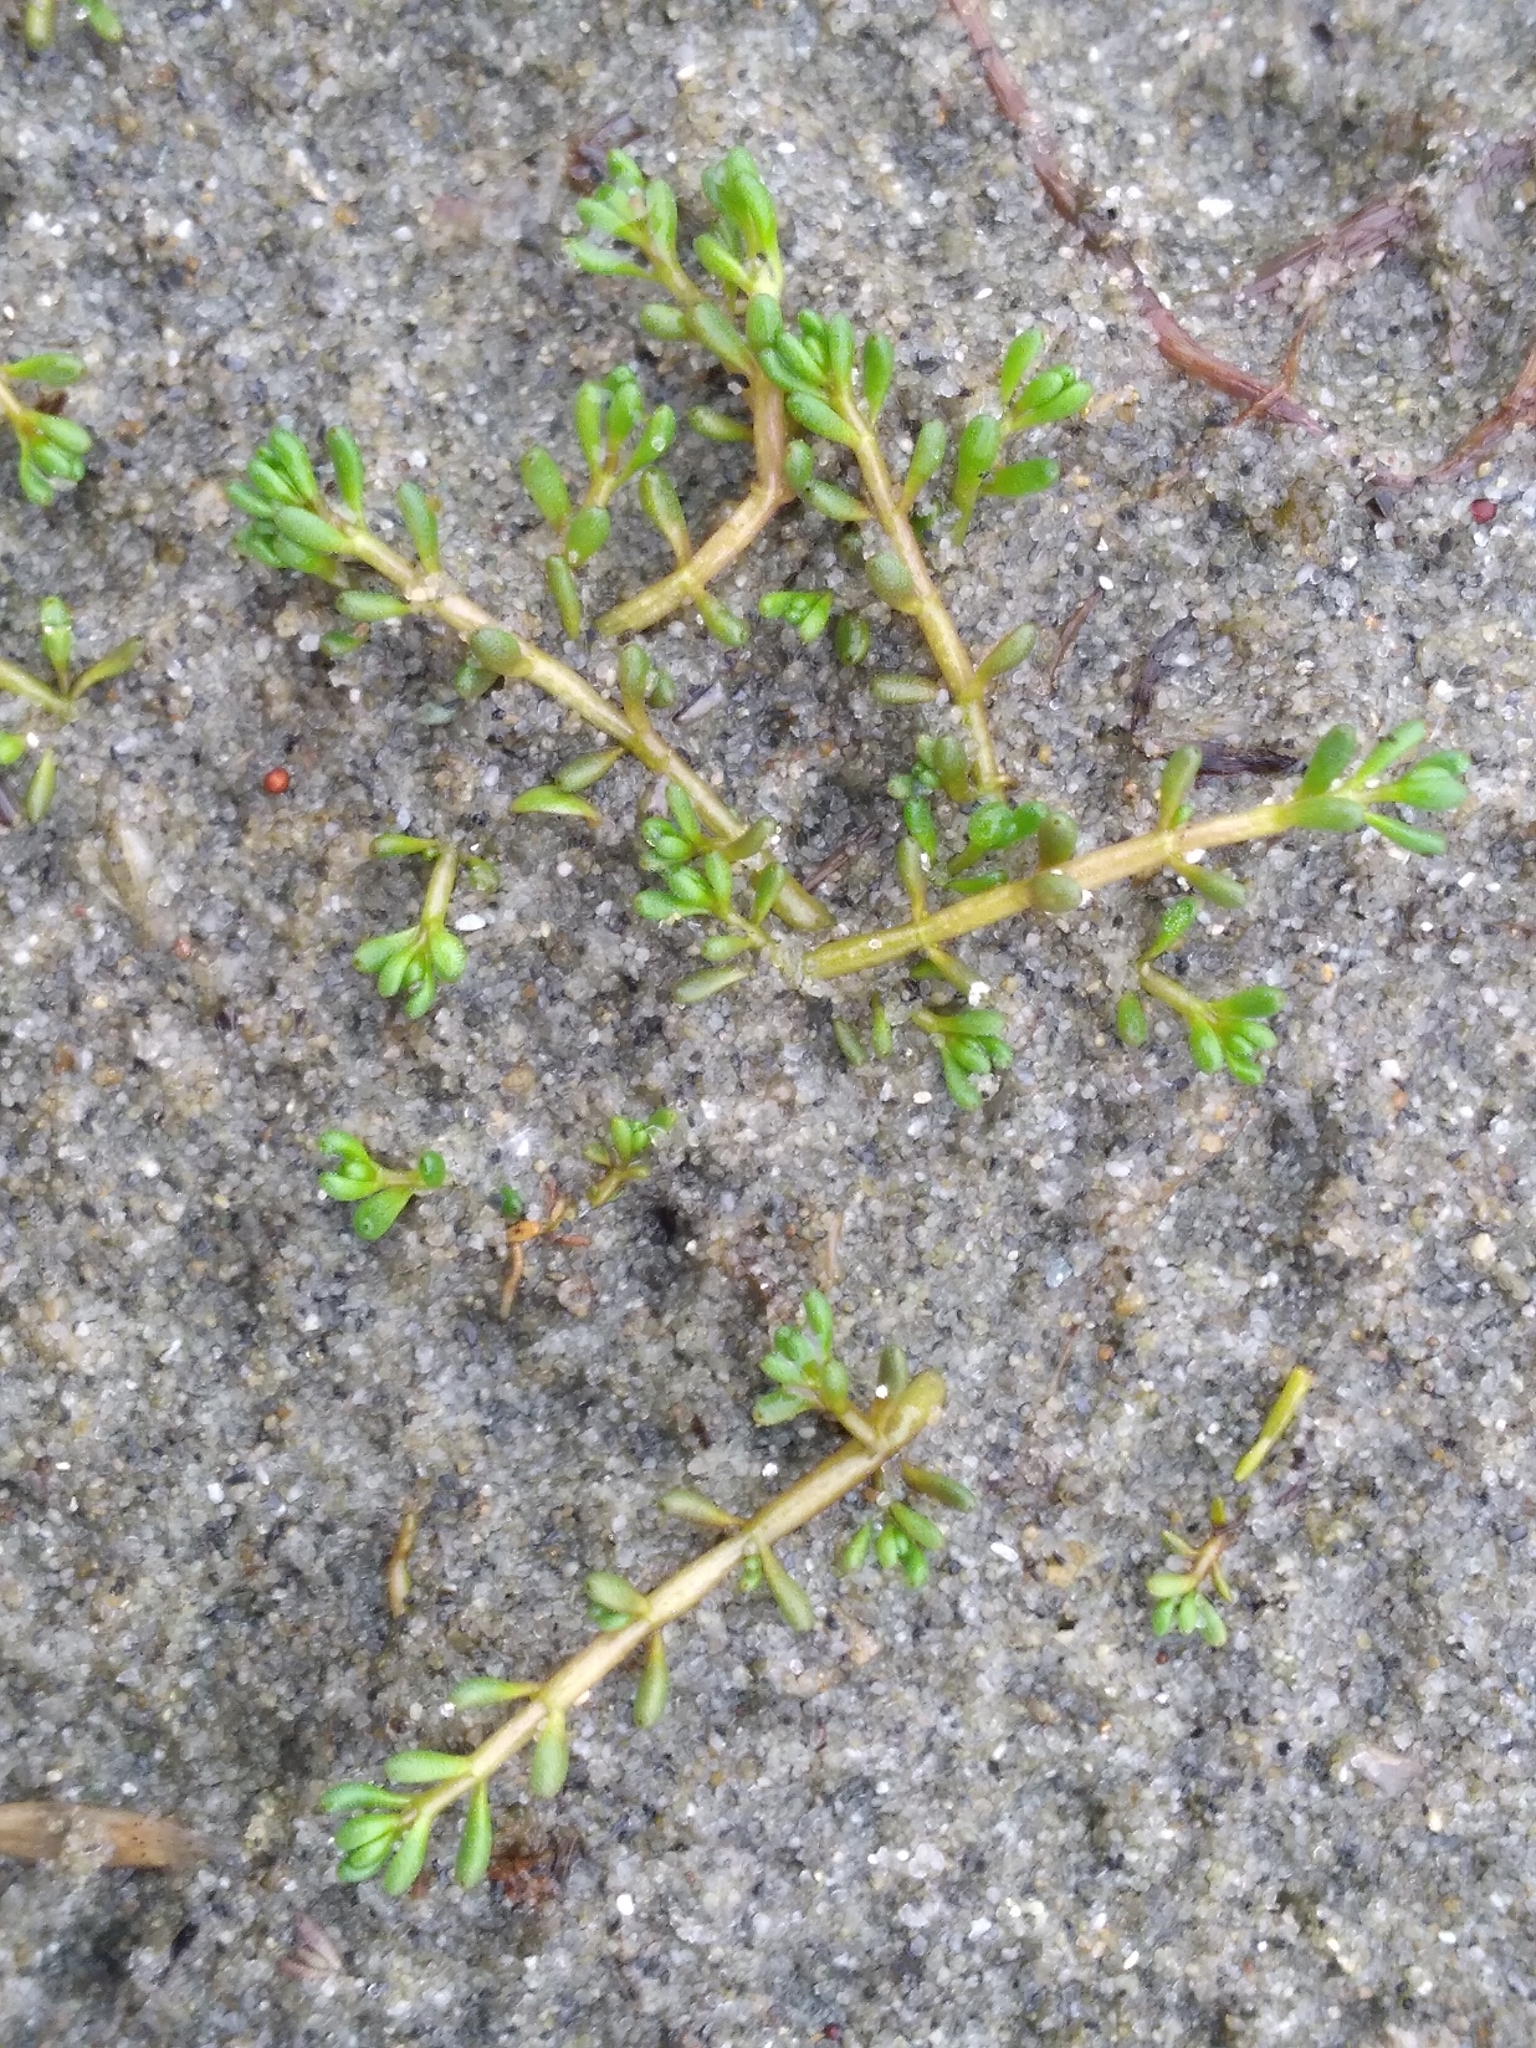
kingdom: Plantae
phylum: Tracheophyta
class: Magnoliopsida
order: Saxifragales
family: Haloragaceae
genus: Myriophyllum
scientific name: Myriophyllum votschii
